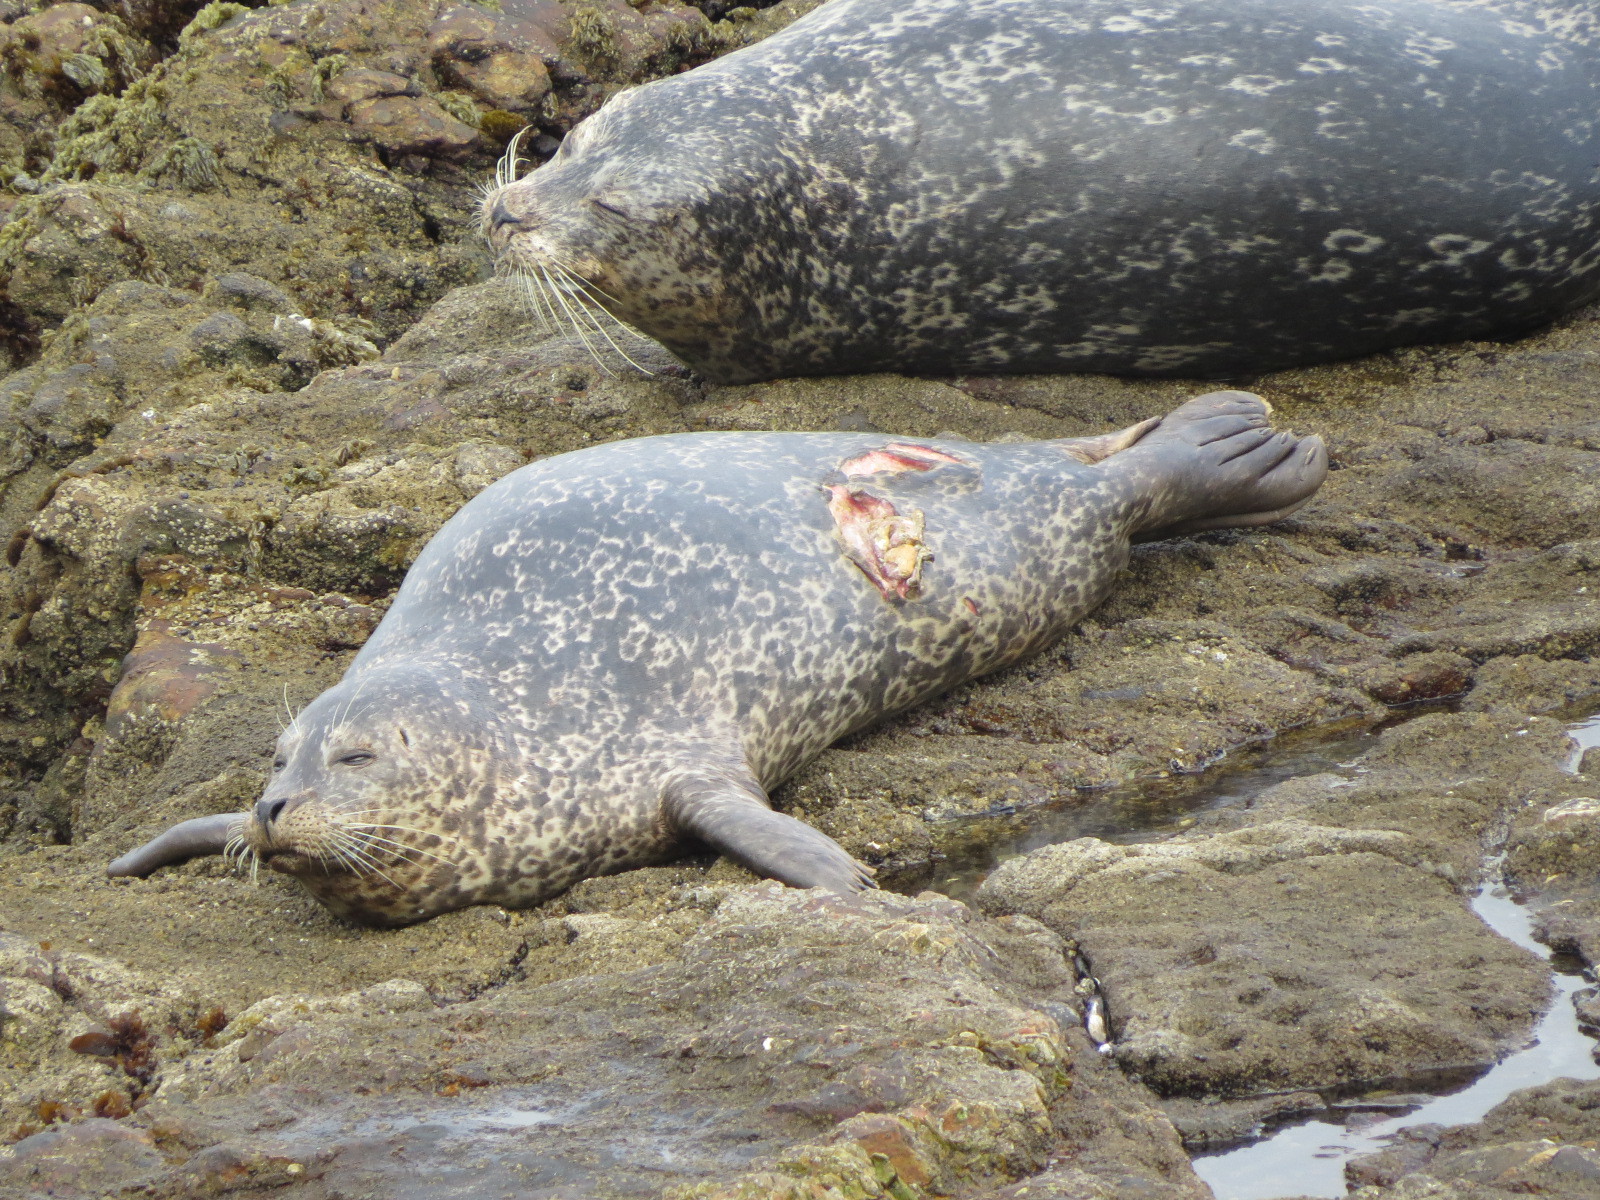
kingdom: Animalia
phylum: Chordata
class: Elasmobranchii
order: Lamniformes
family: Lamnidae
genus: Carcharodon
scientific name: Carcharodon carcharias
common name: Great white shark
